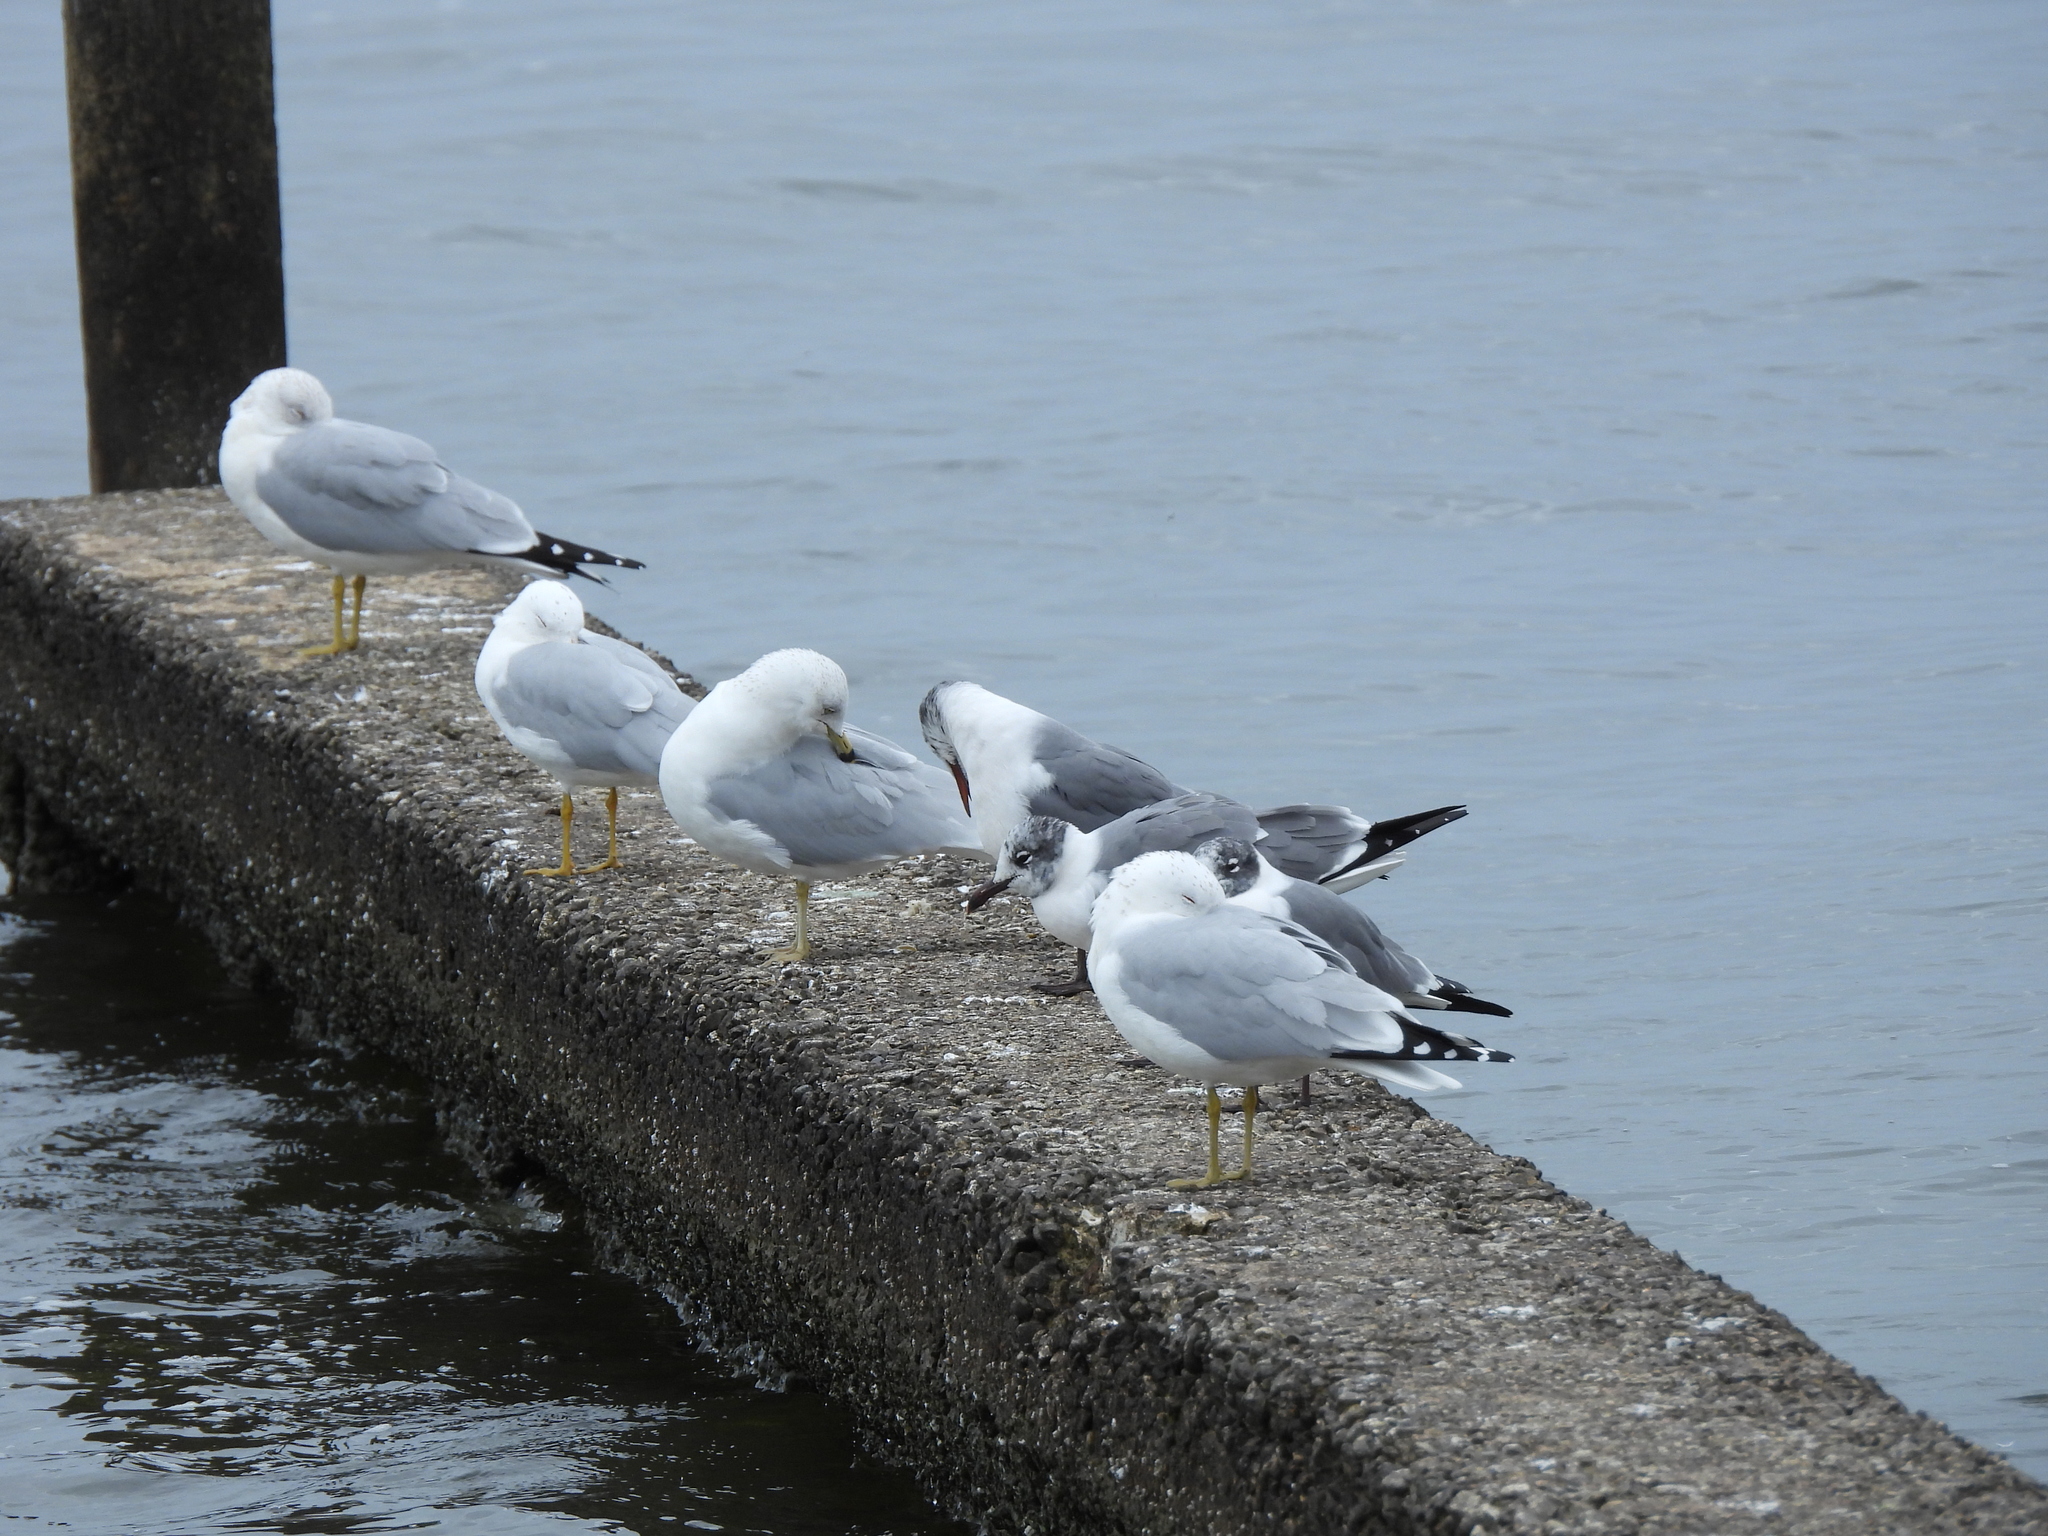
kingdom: Animalia
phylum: Chordata
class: Aves
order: Charadriiformes
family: Laridae
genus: Leucophaeus
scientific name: Leucophaeus atricilla
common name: Laughing gull
